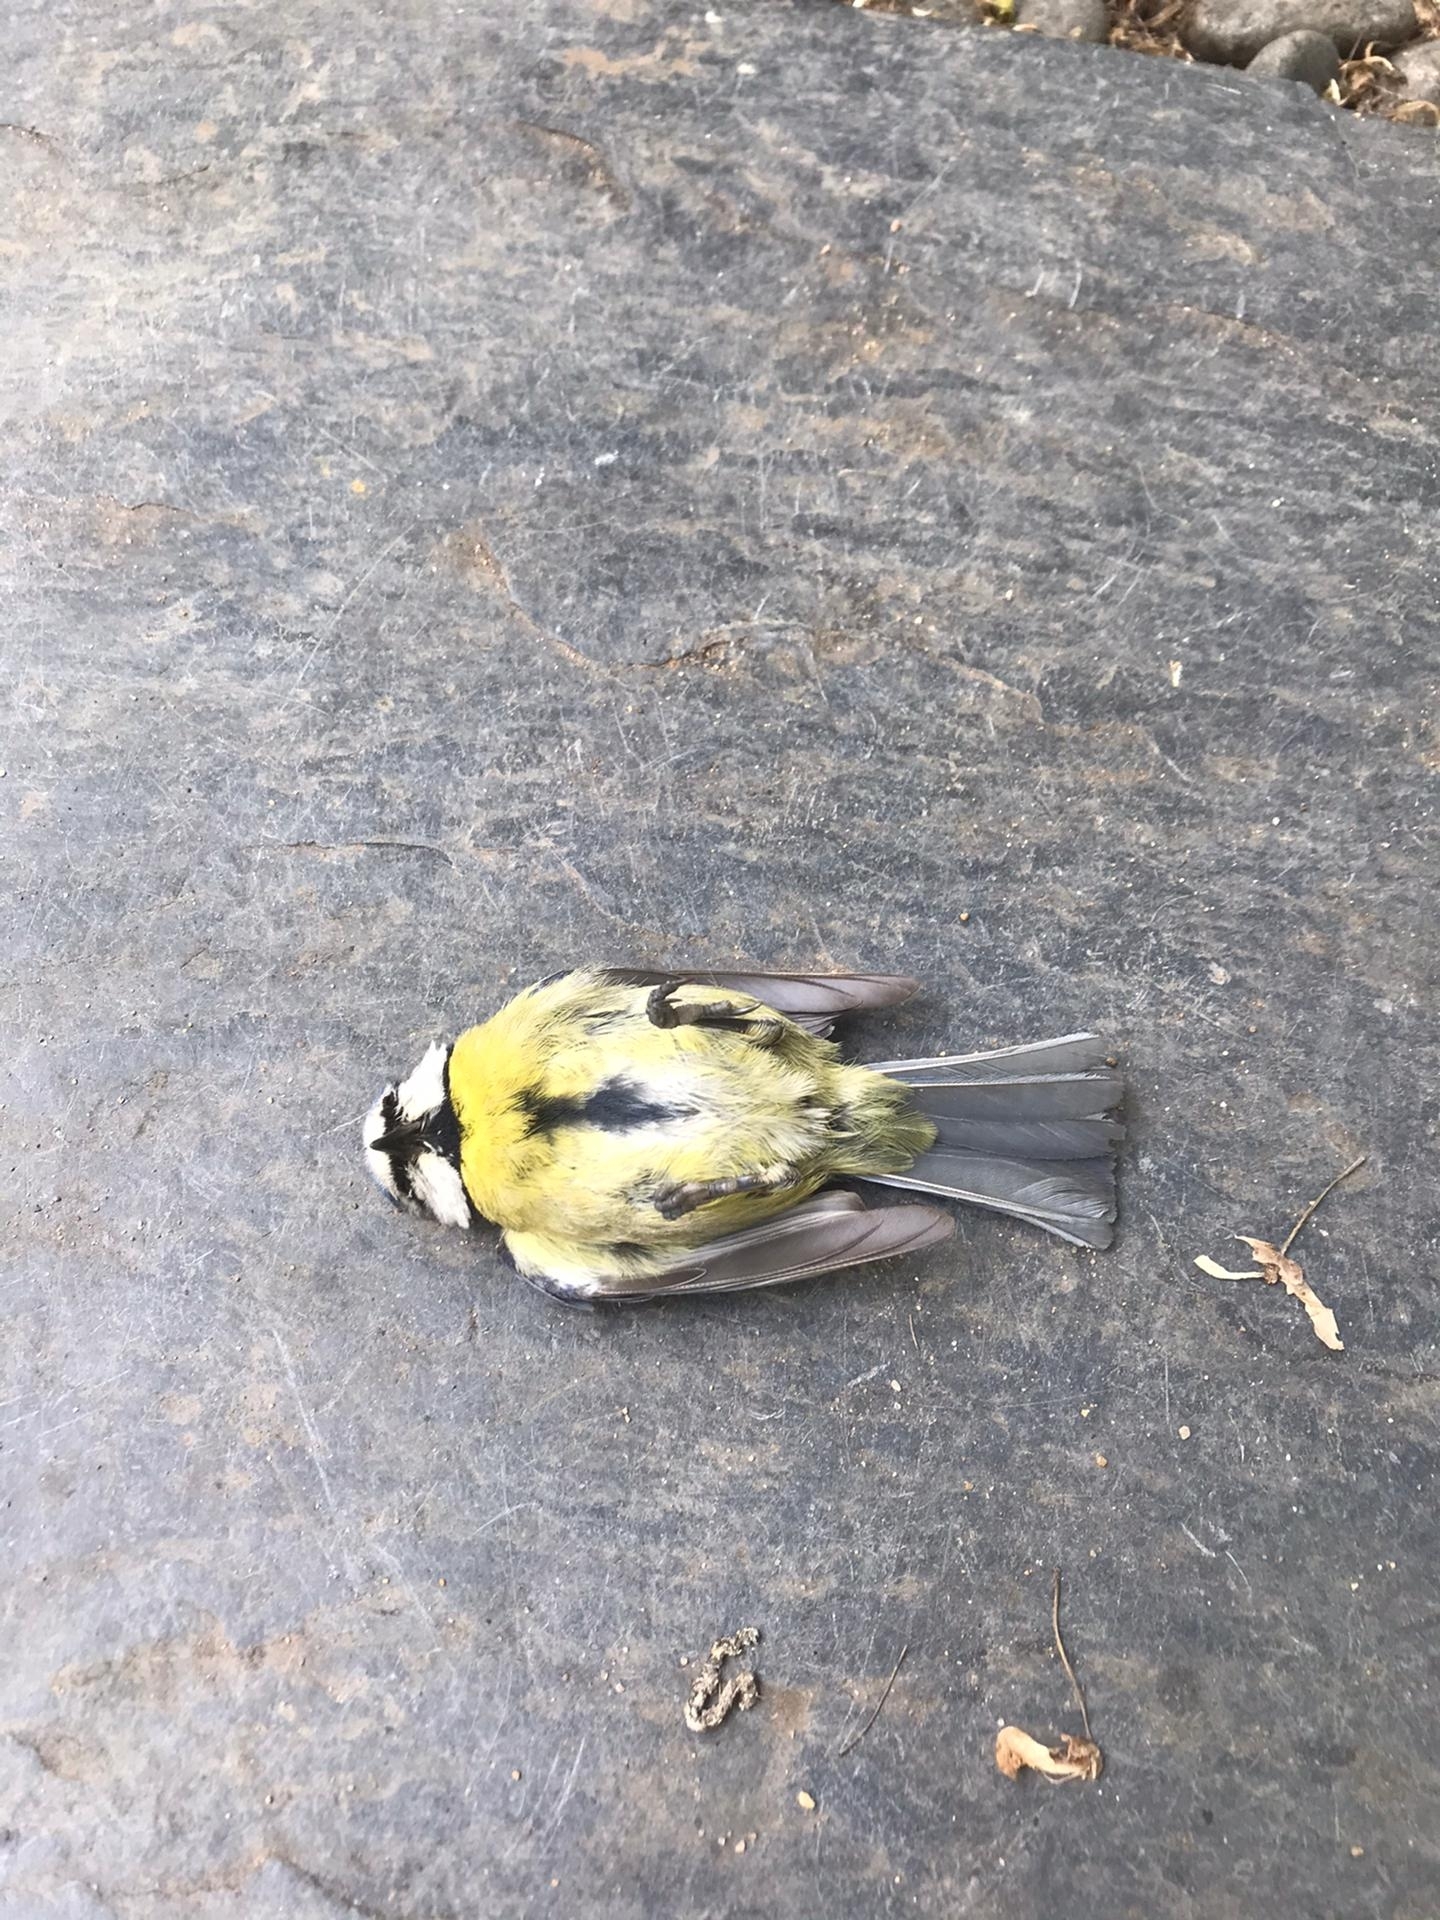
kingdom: Animalia
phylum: Chordata
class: Aves
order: Passeriformes
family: Paridae
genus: Cyanistes
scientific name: Cyanistes caeruleus
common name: Eurasian blue tit
